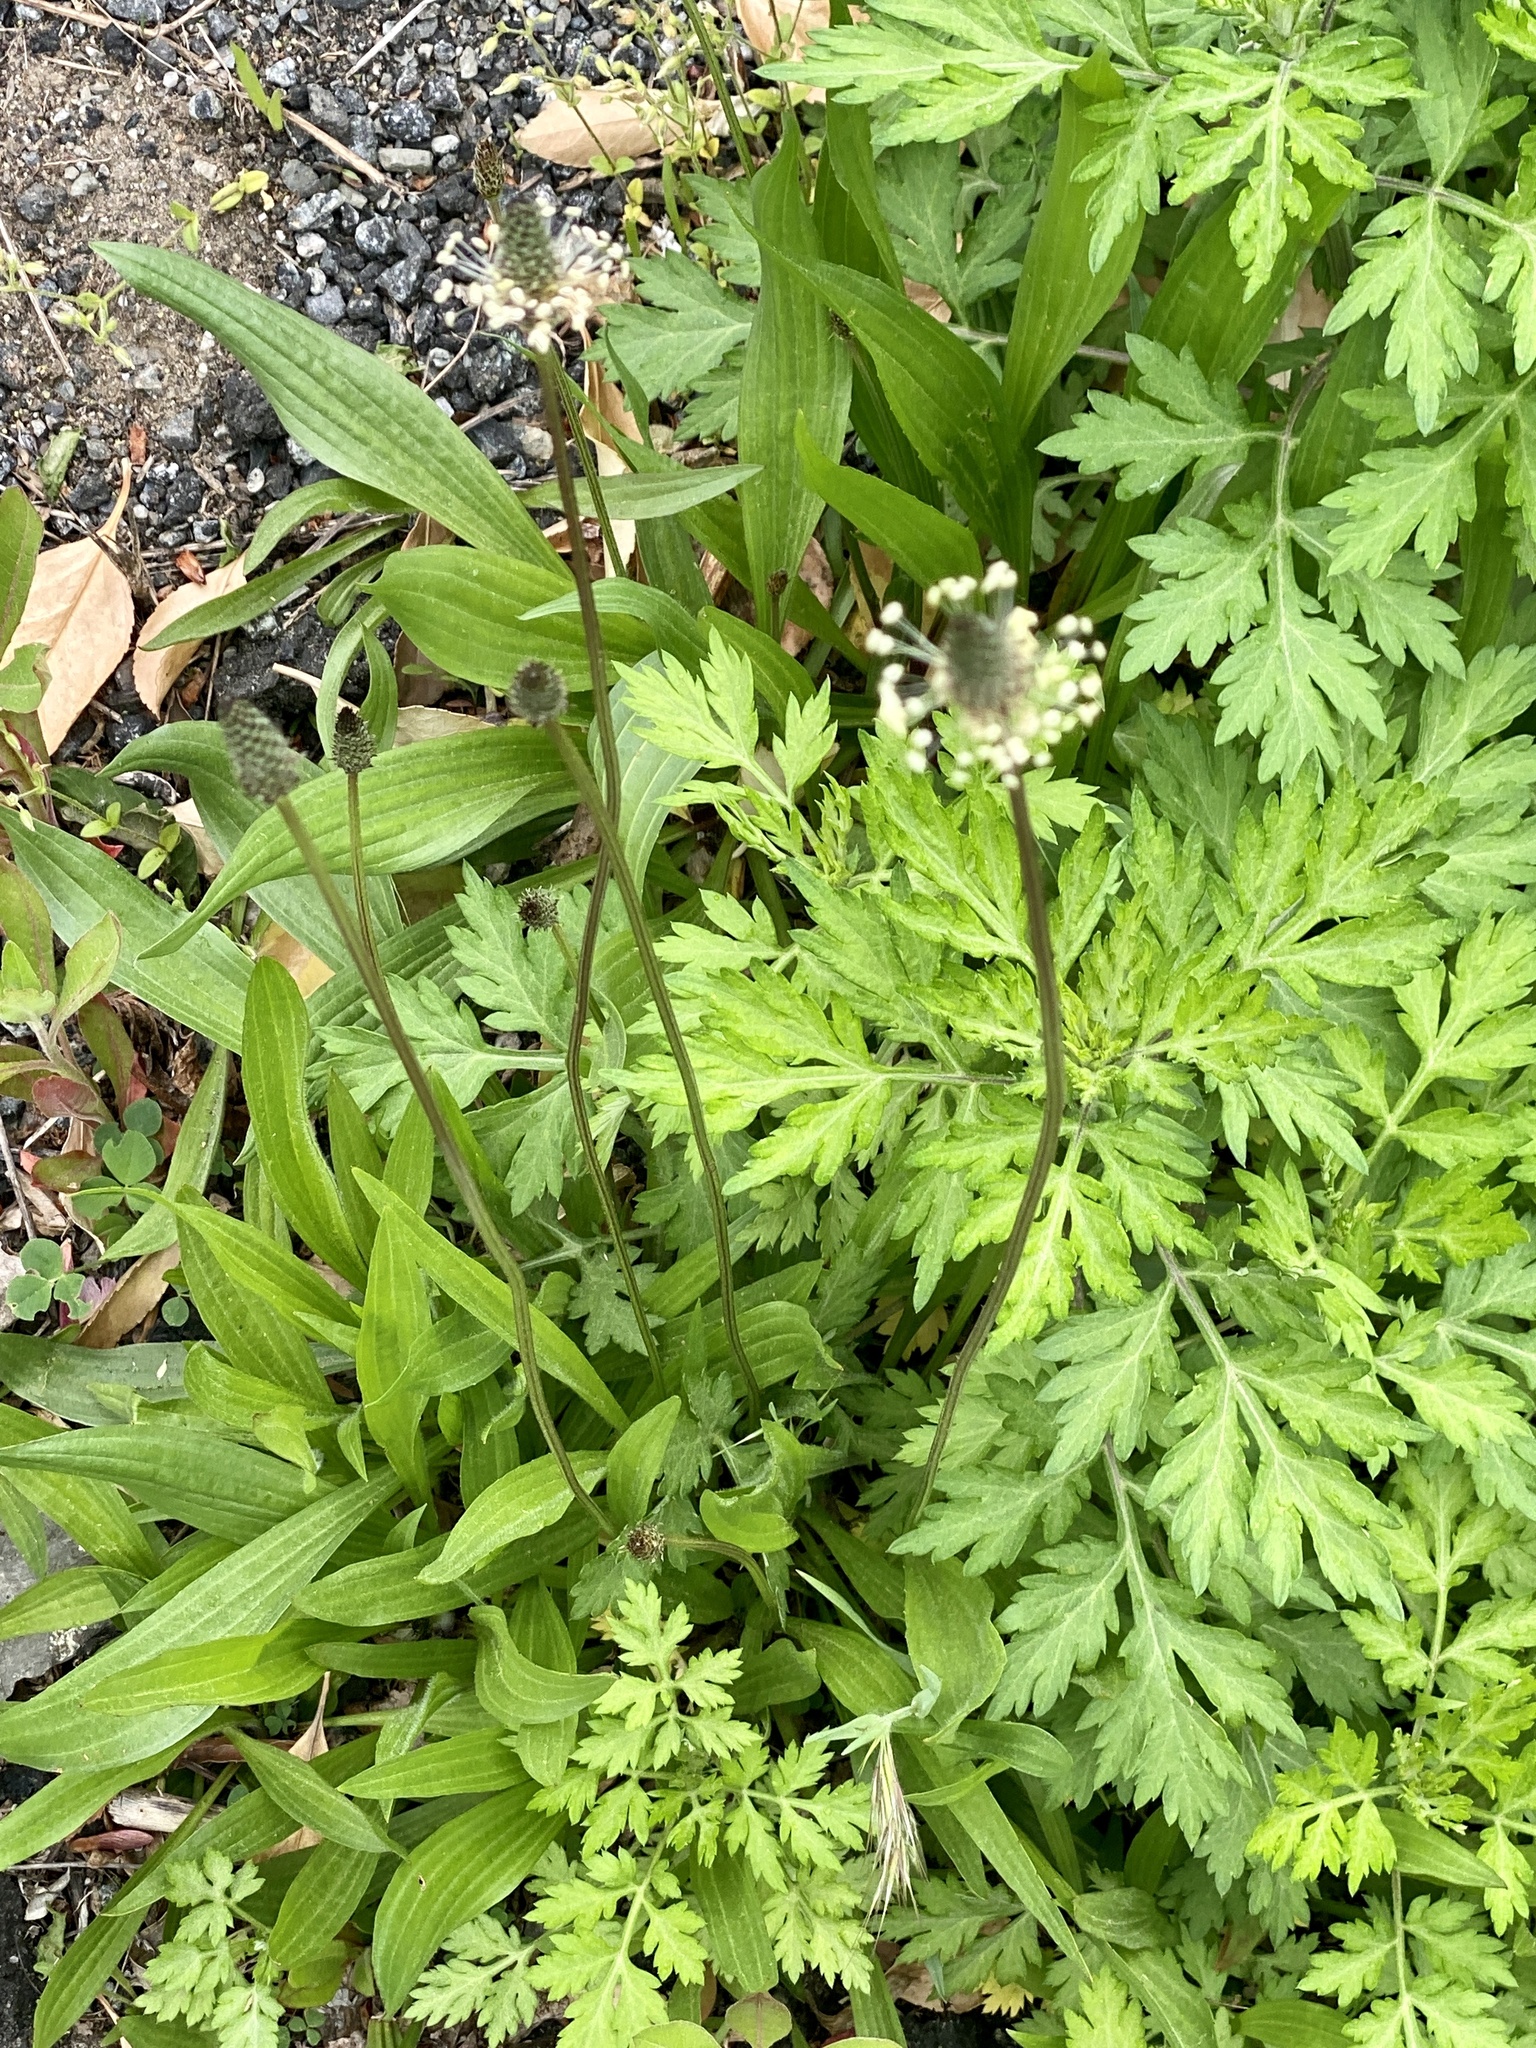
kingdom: Plantae
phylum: Tracheophyta
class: Magnoliopsida
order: Lamiales
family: Plantaginaceae
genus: Plantago
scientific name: Plantago lanceolata
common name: Ribwort plantain
